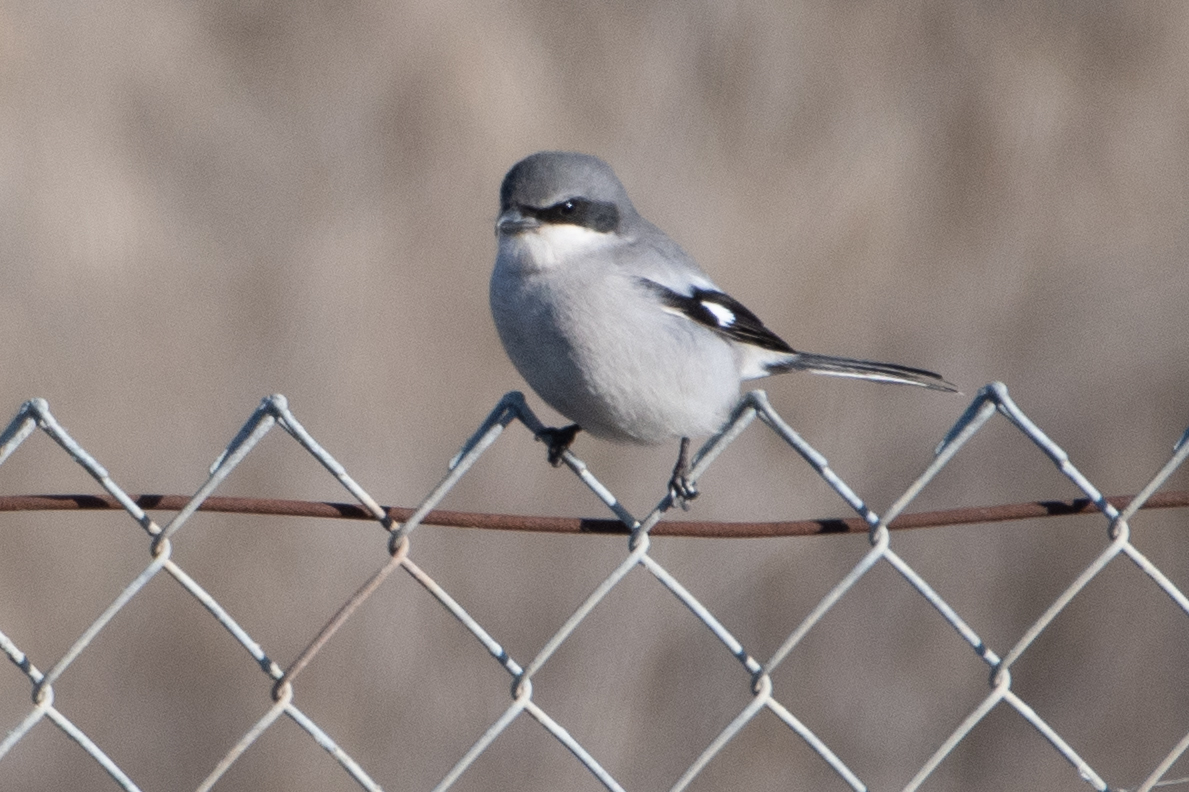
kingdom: Animalia
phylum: Chordata
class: Aves
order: Passeriformes
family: Laniidae
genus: Lanius
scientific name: Lanius ludovicianus
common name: Loggerhead shrike
